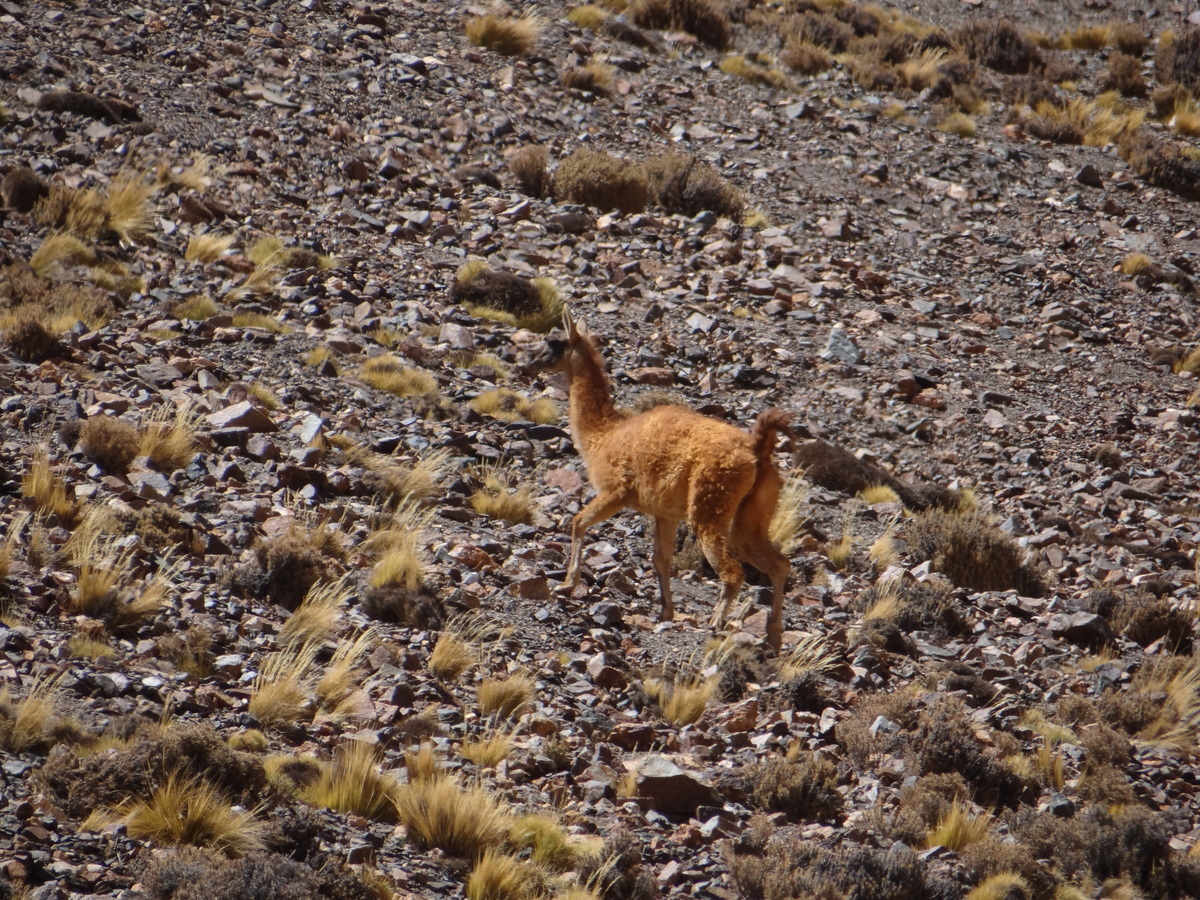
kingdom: Animalia
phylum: Chordata
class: Mammalia
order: Artiodactyla
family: Camelidae
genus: Lama
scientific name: Lama glama
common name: Llama
